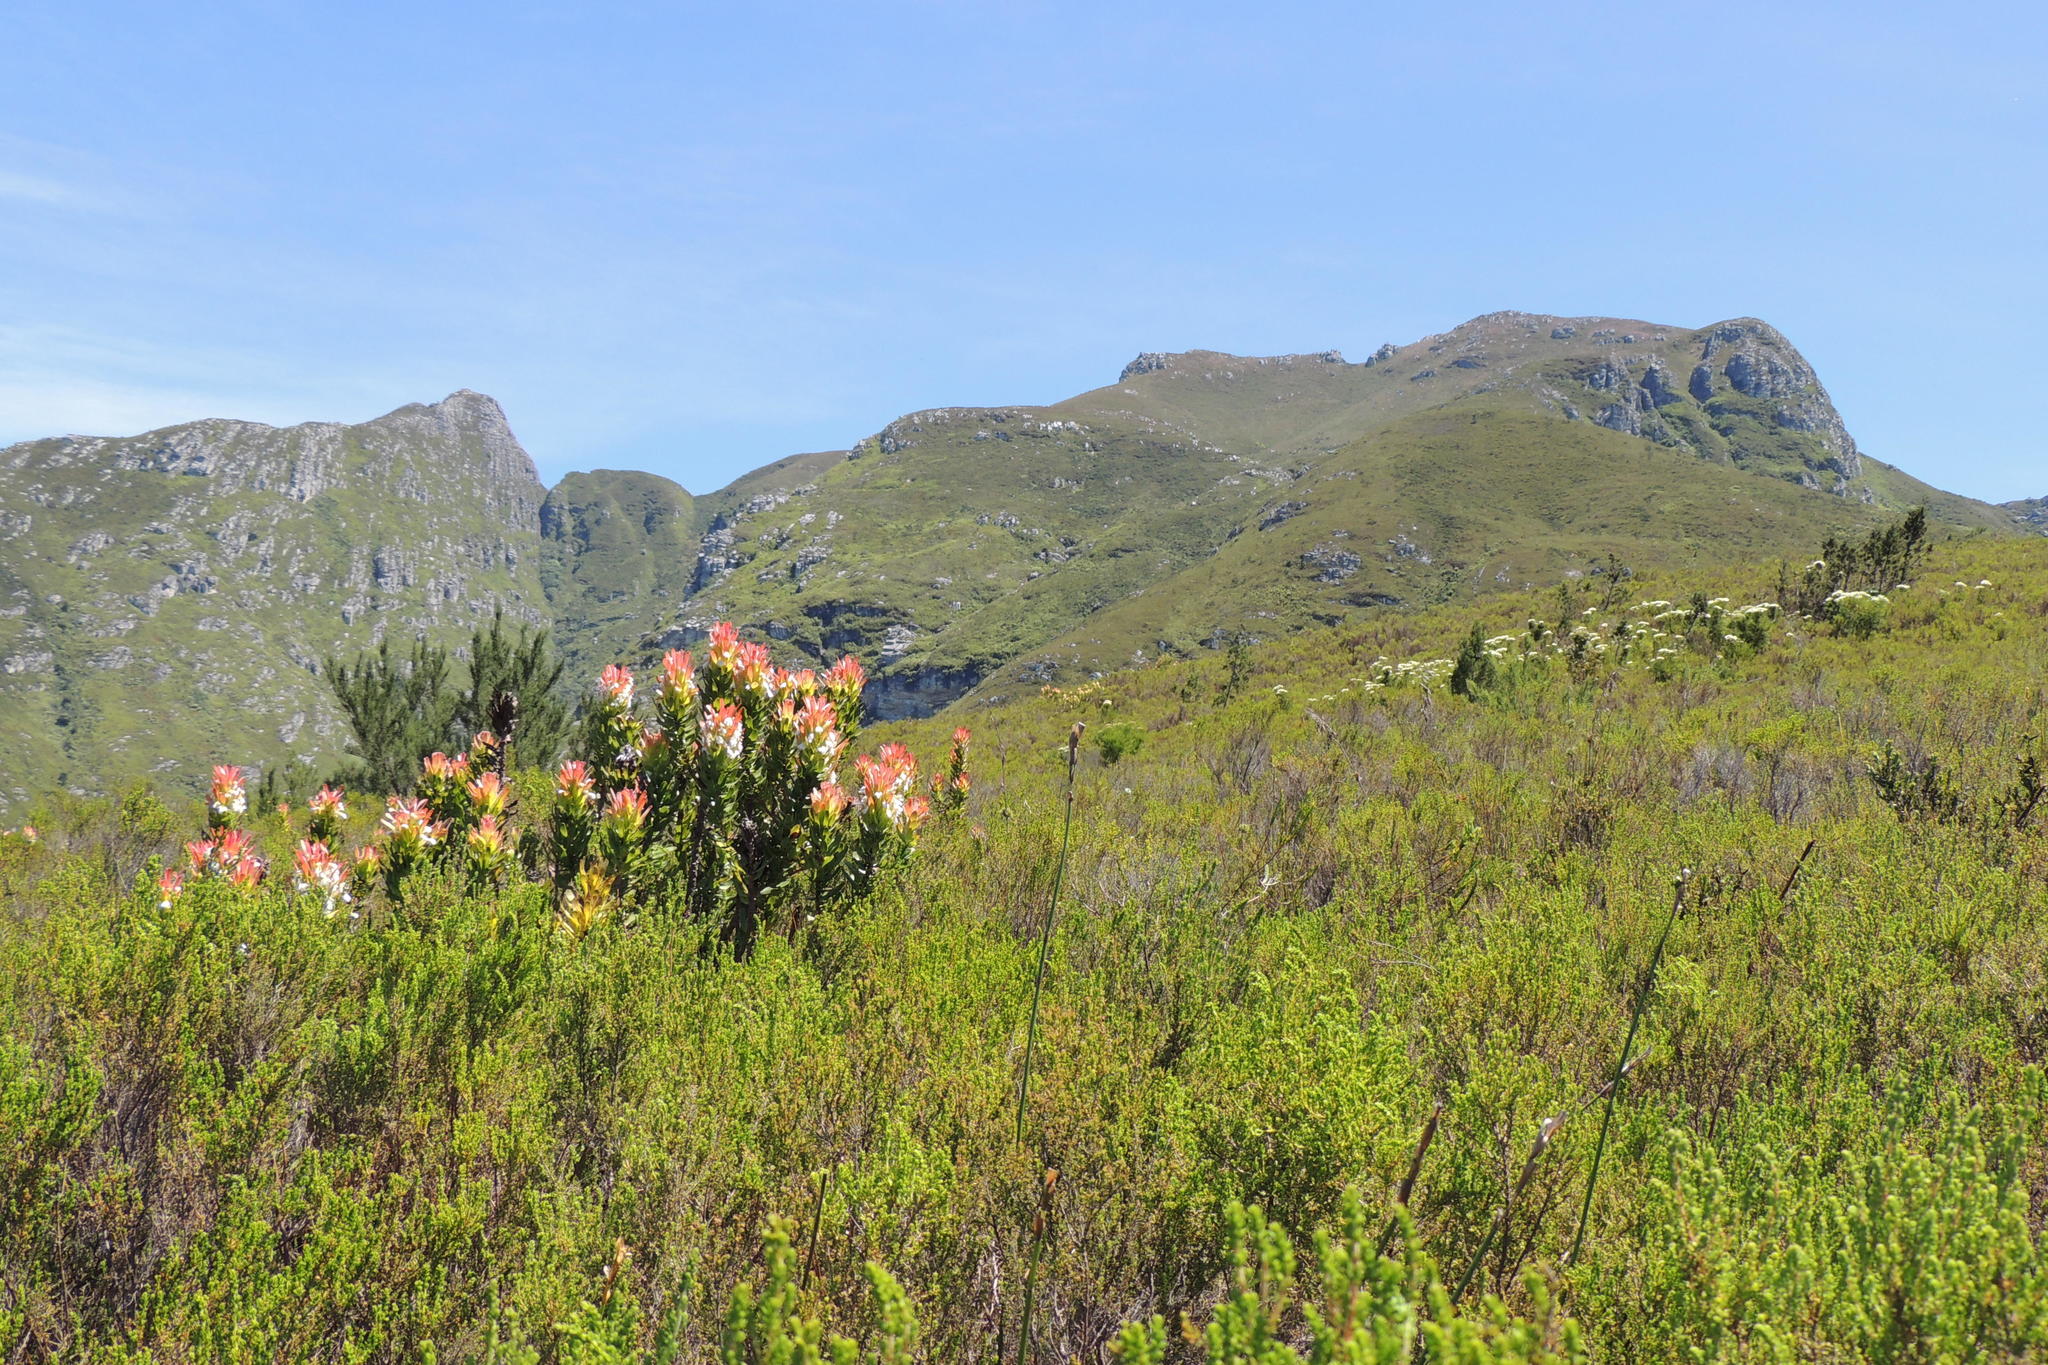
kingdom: Plantae
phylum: Tracheophyta
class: Magnoliopsida
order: Proteales
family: Proteaceae
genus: Mimetes
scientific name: Mimetes cucullatus
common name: Common pagoda
